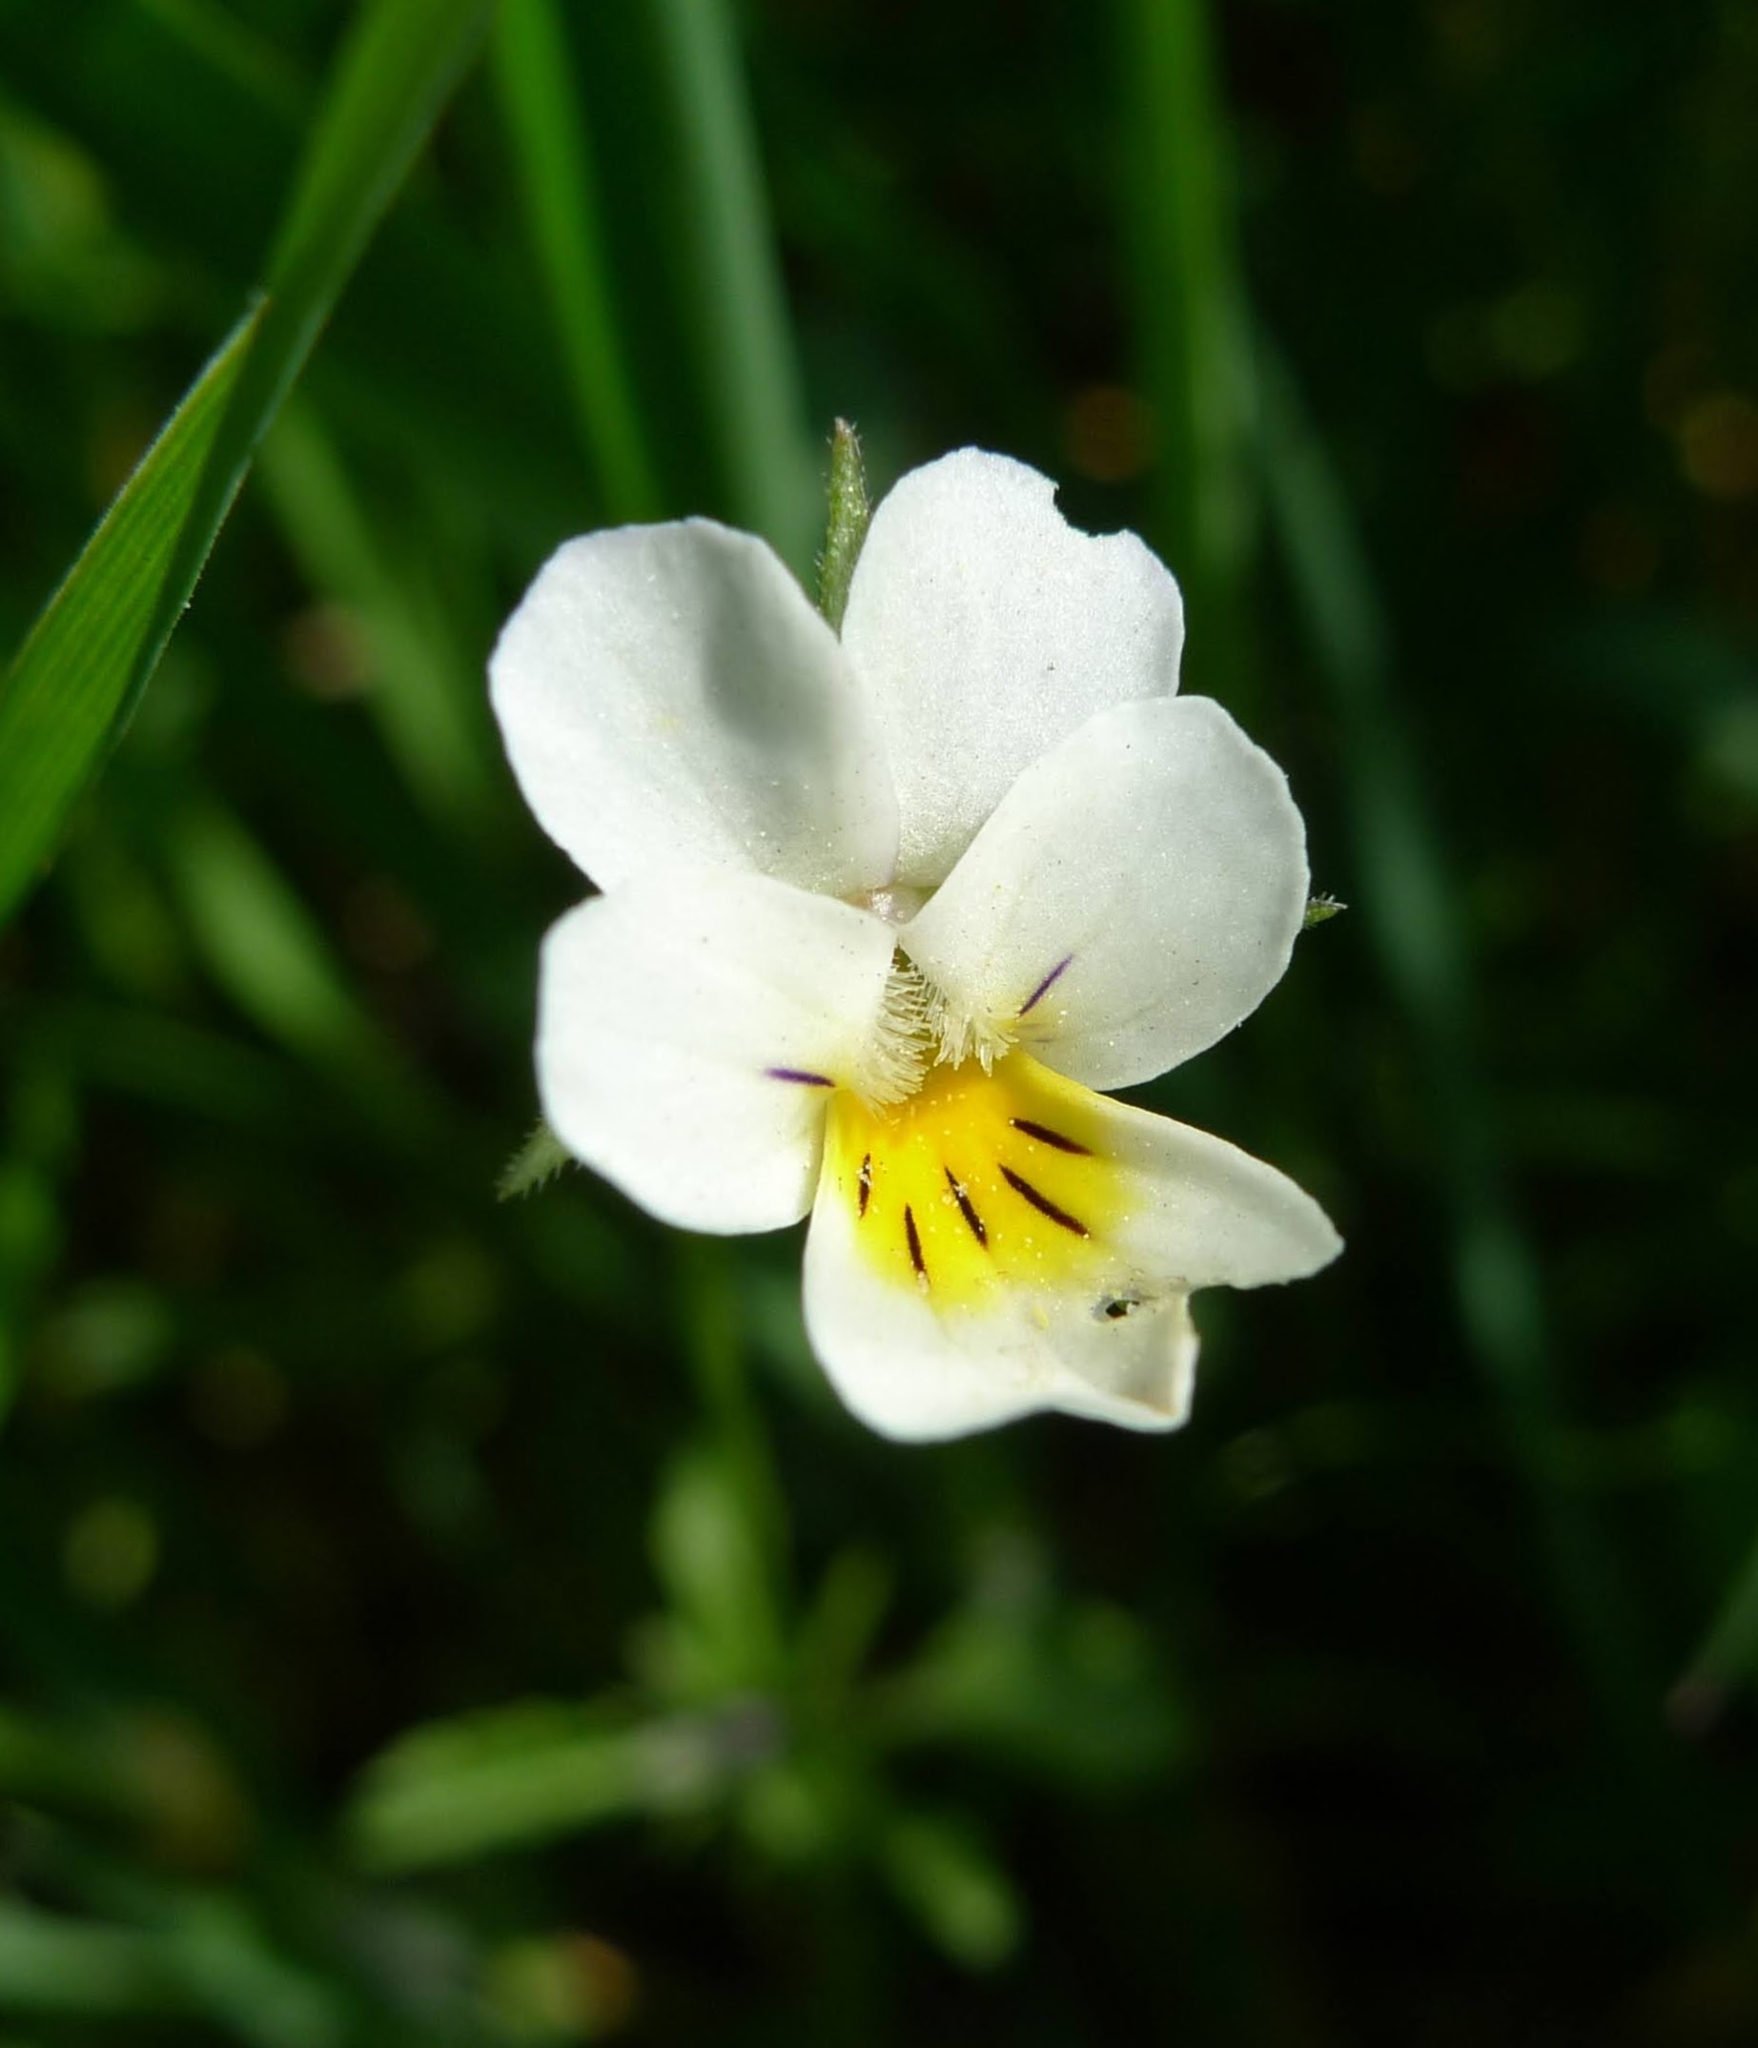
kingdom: Plantae
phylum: Tracheophyta
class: Magnoliopsida
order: Malpighiales
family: Violaceae
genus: Viola
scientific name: Viola arvensis
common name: Field pansy
